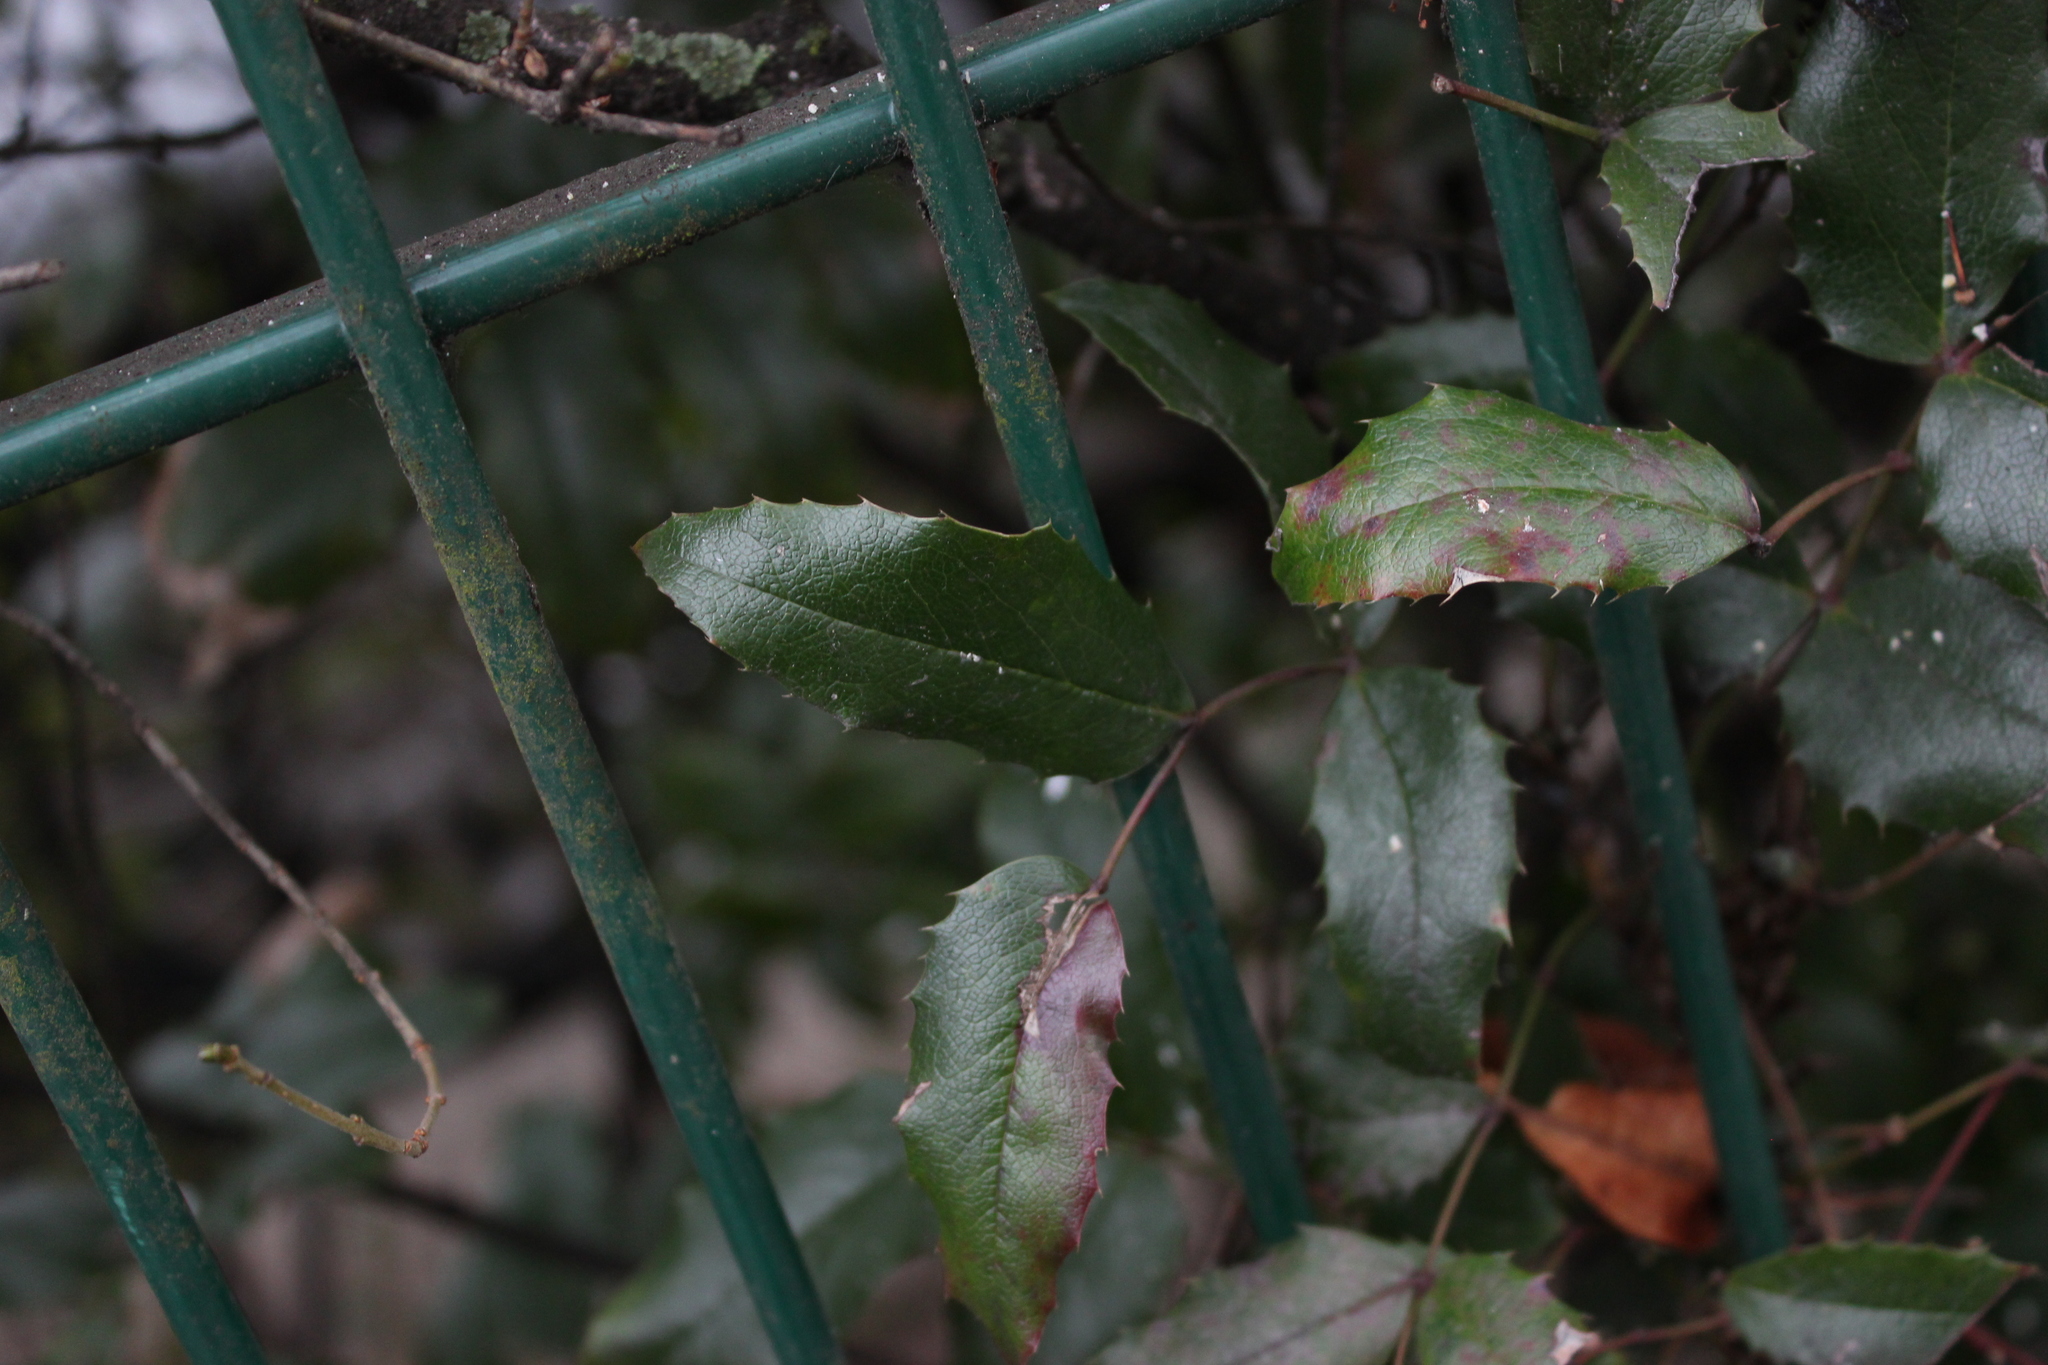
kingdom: Plantae
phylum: Tracheophyta
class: Magnoliopsida
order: Ranunculales
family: Berberidaceae
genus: Mahonia
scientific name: Mahonia aquifolium
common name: Oregon-grape
